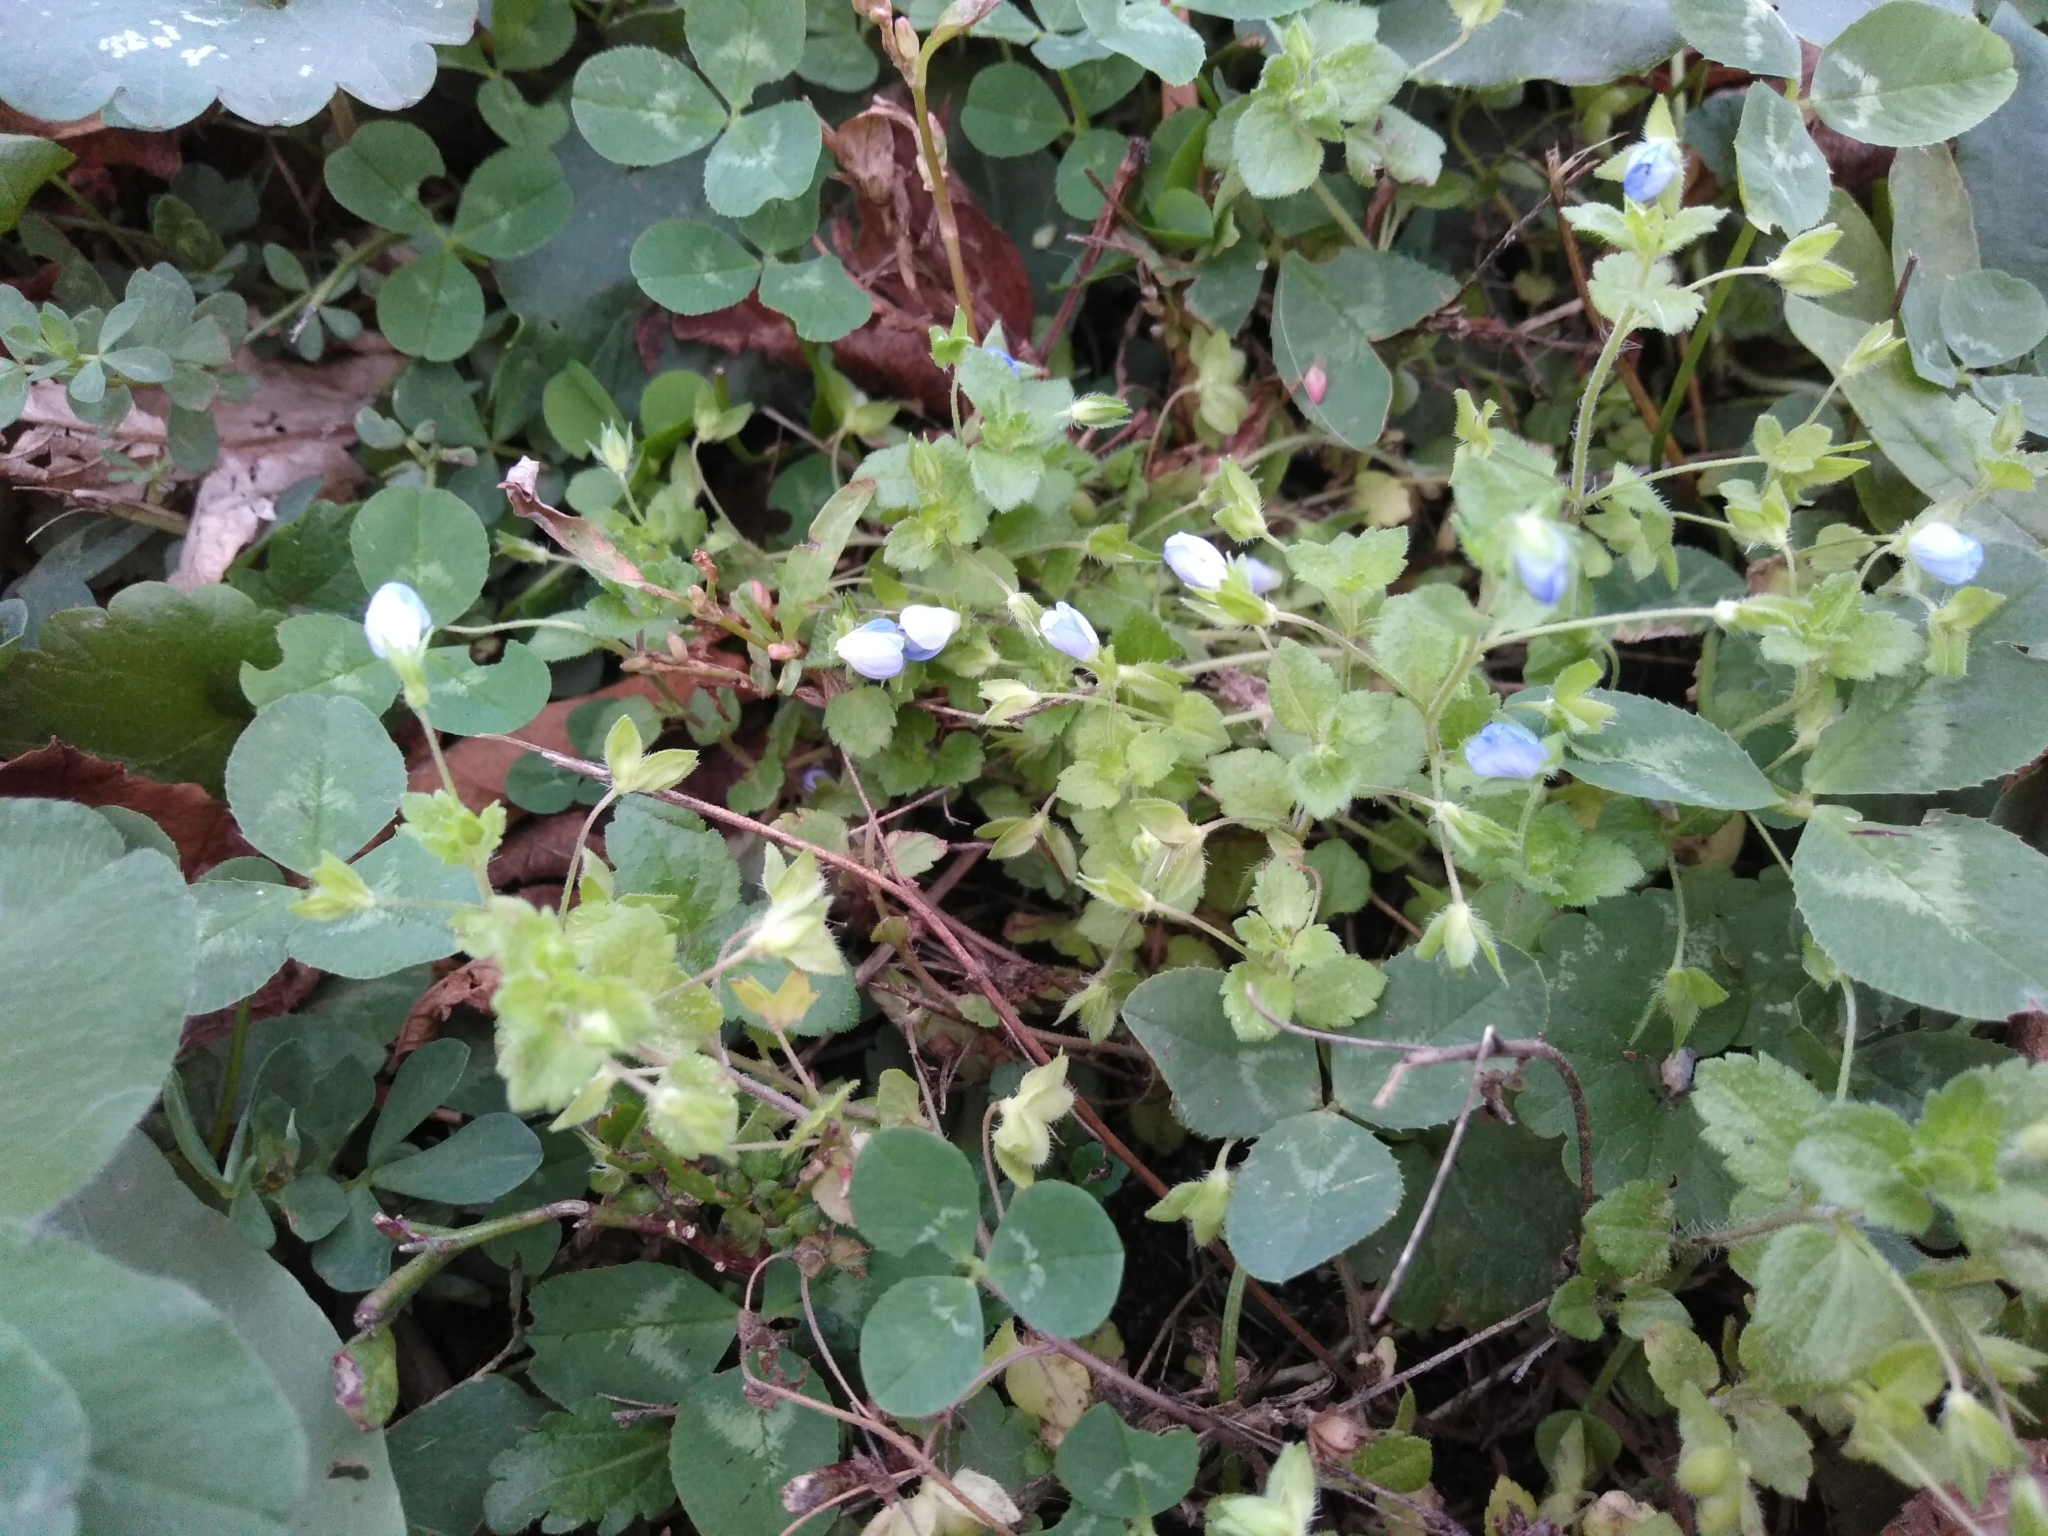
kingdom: Plantae
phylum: Tracheophyta
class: Magnoliopsida
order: Lamiales
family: Plantaginaceae
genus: Veronica
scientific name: Veronica persica
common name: Common field-speedwell
